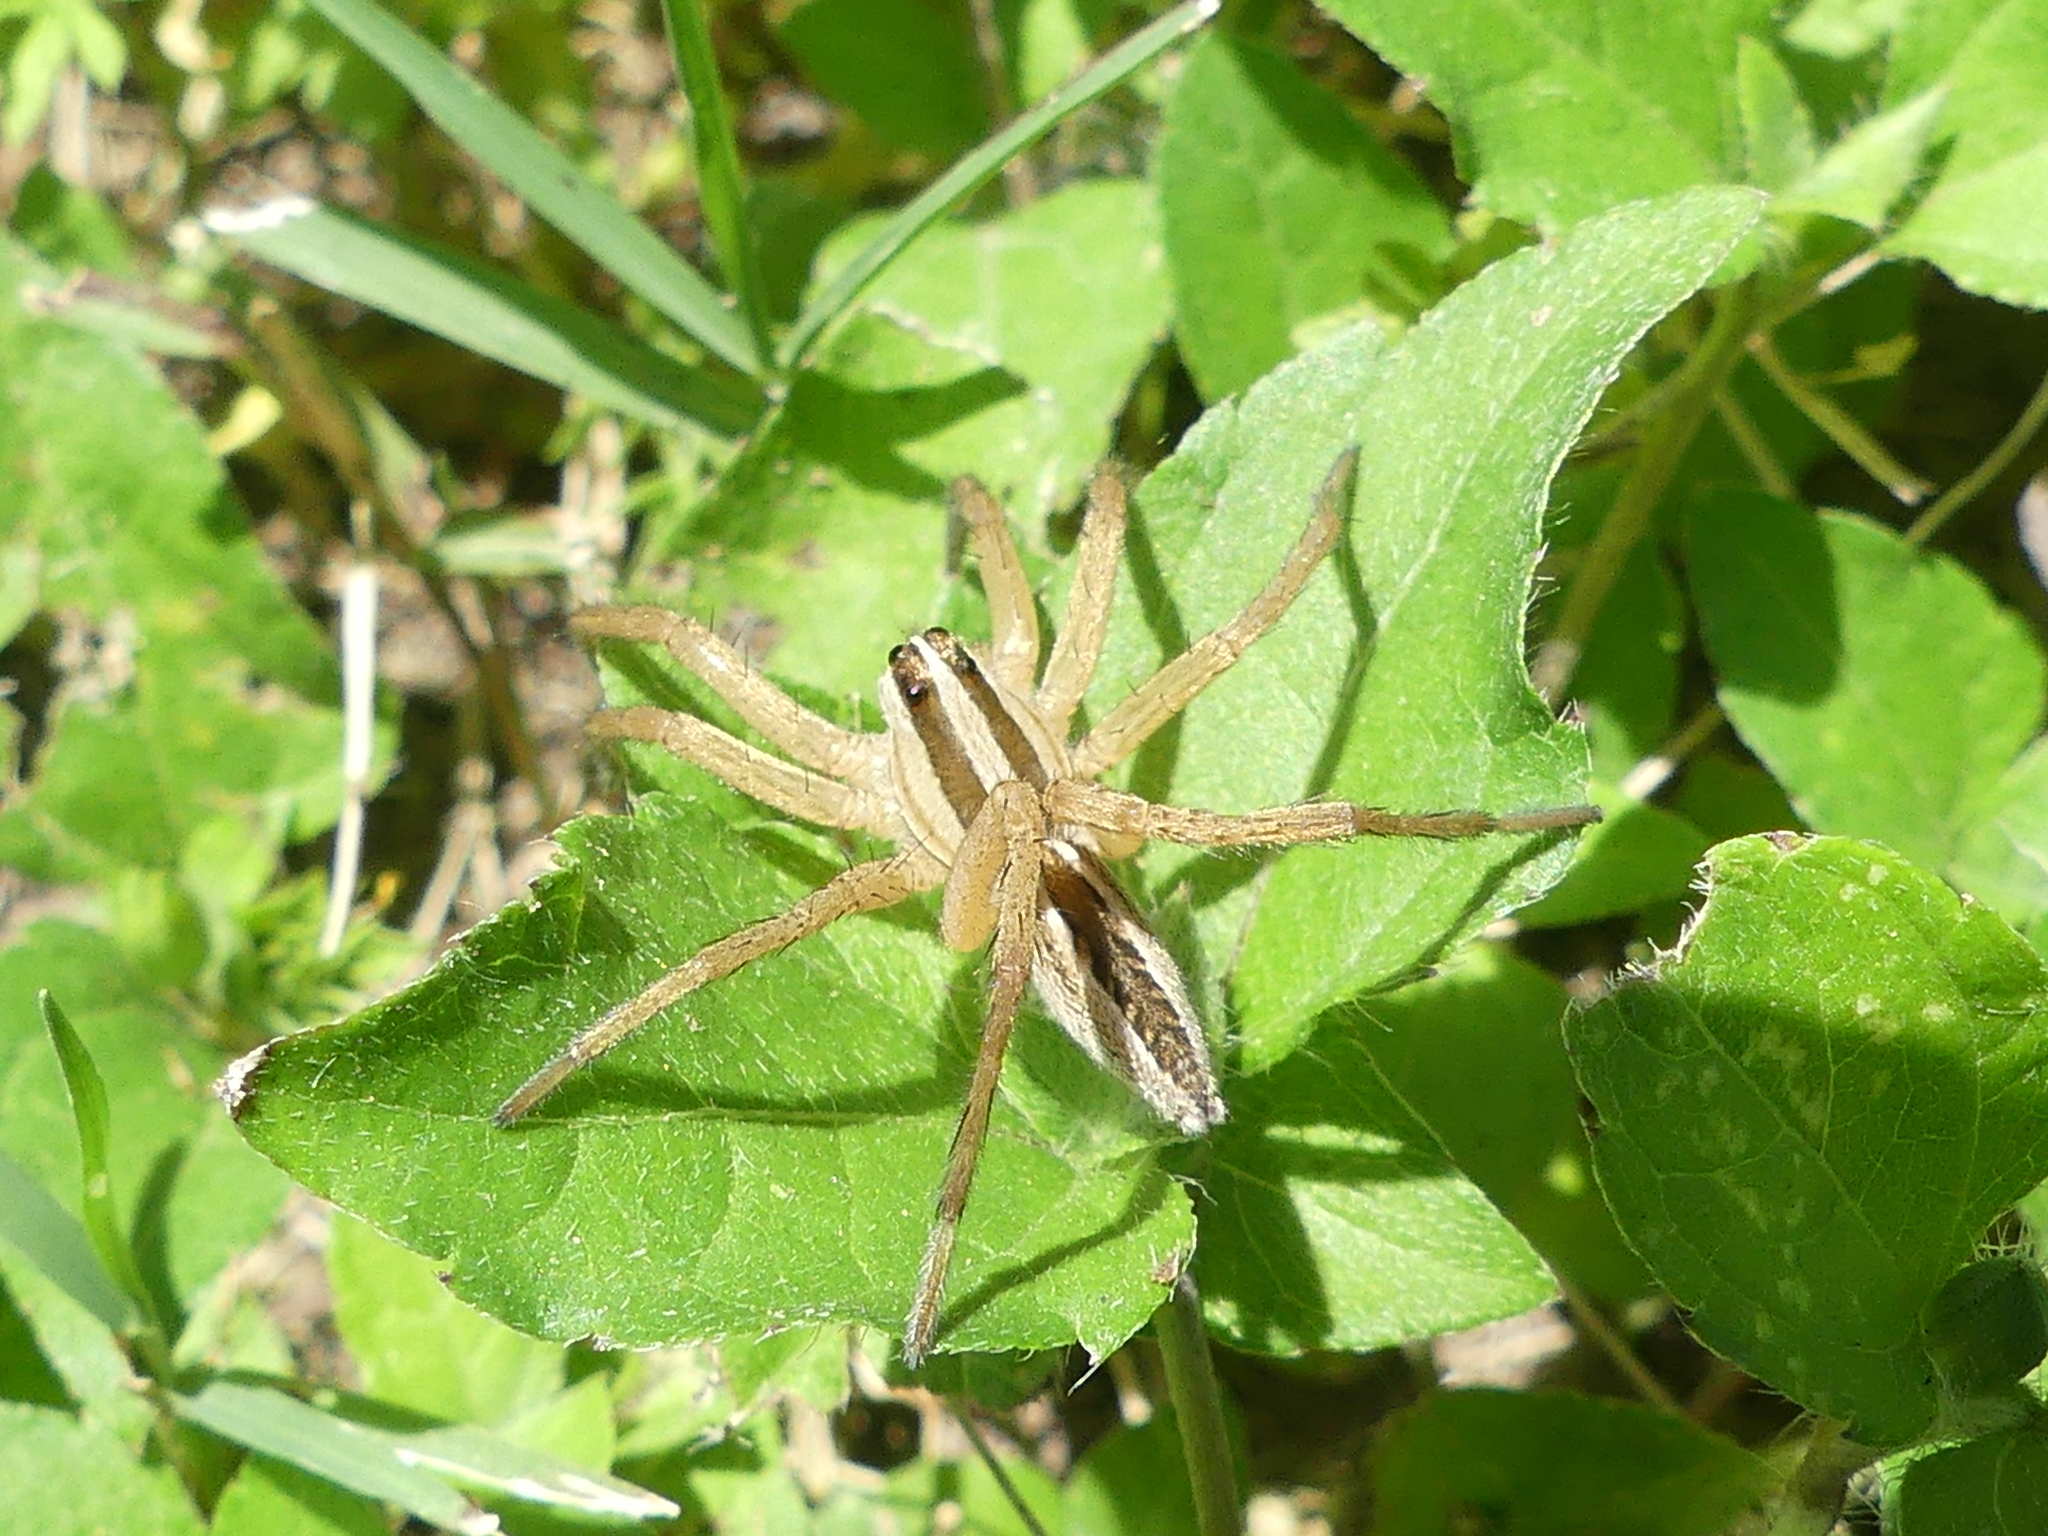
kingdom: Animalia
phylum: Arthropoda
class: Arachnida
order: Araneae
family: Lycosidae
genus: Rabidosa
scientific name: Rabidosa rabida
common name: Rabid wolf spider
